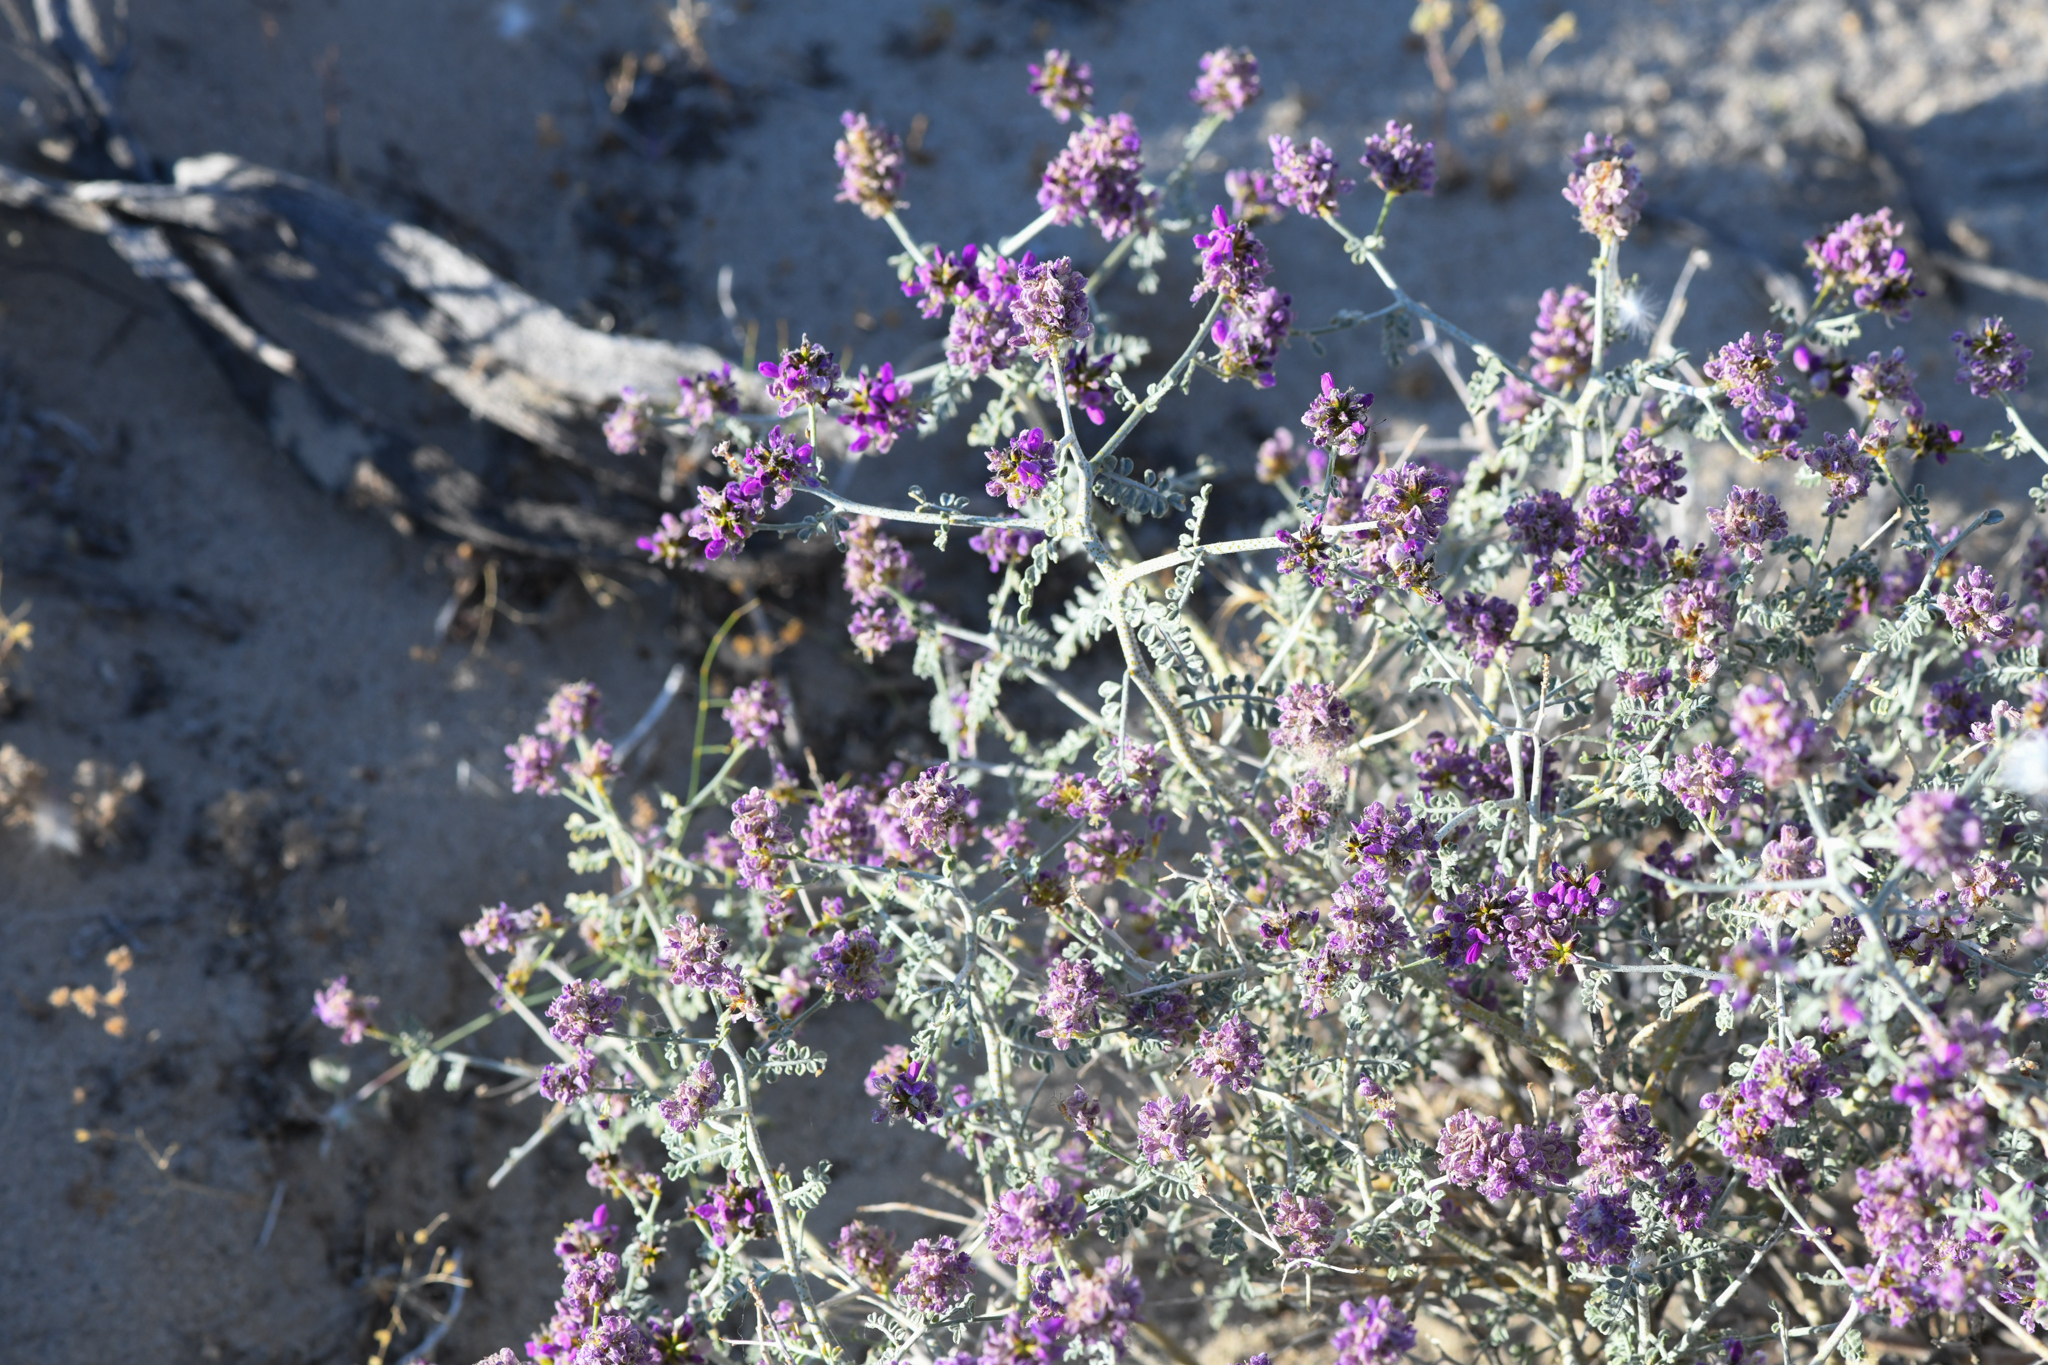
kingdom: Plantae
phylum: Tracheophyta
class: Magnoliopsida
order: Fabales
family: Fabaceae
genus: Psorothamnus
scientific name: Psorothamnus polydenius
